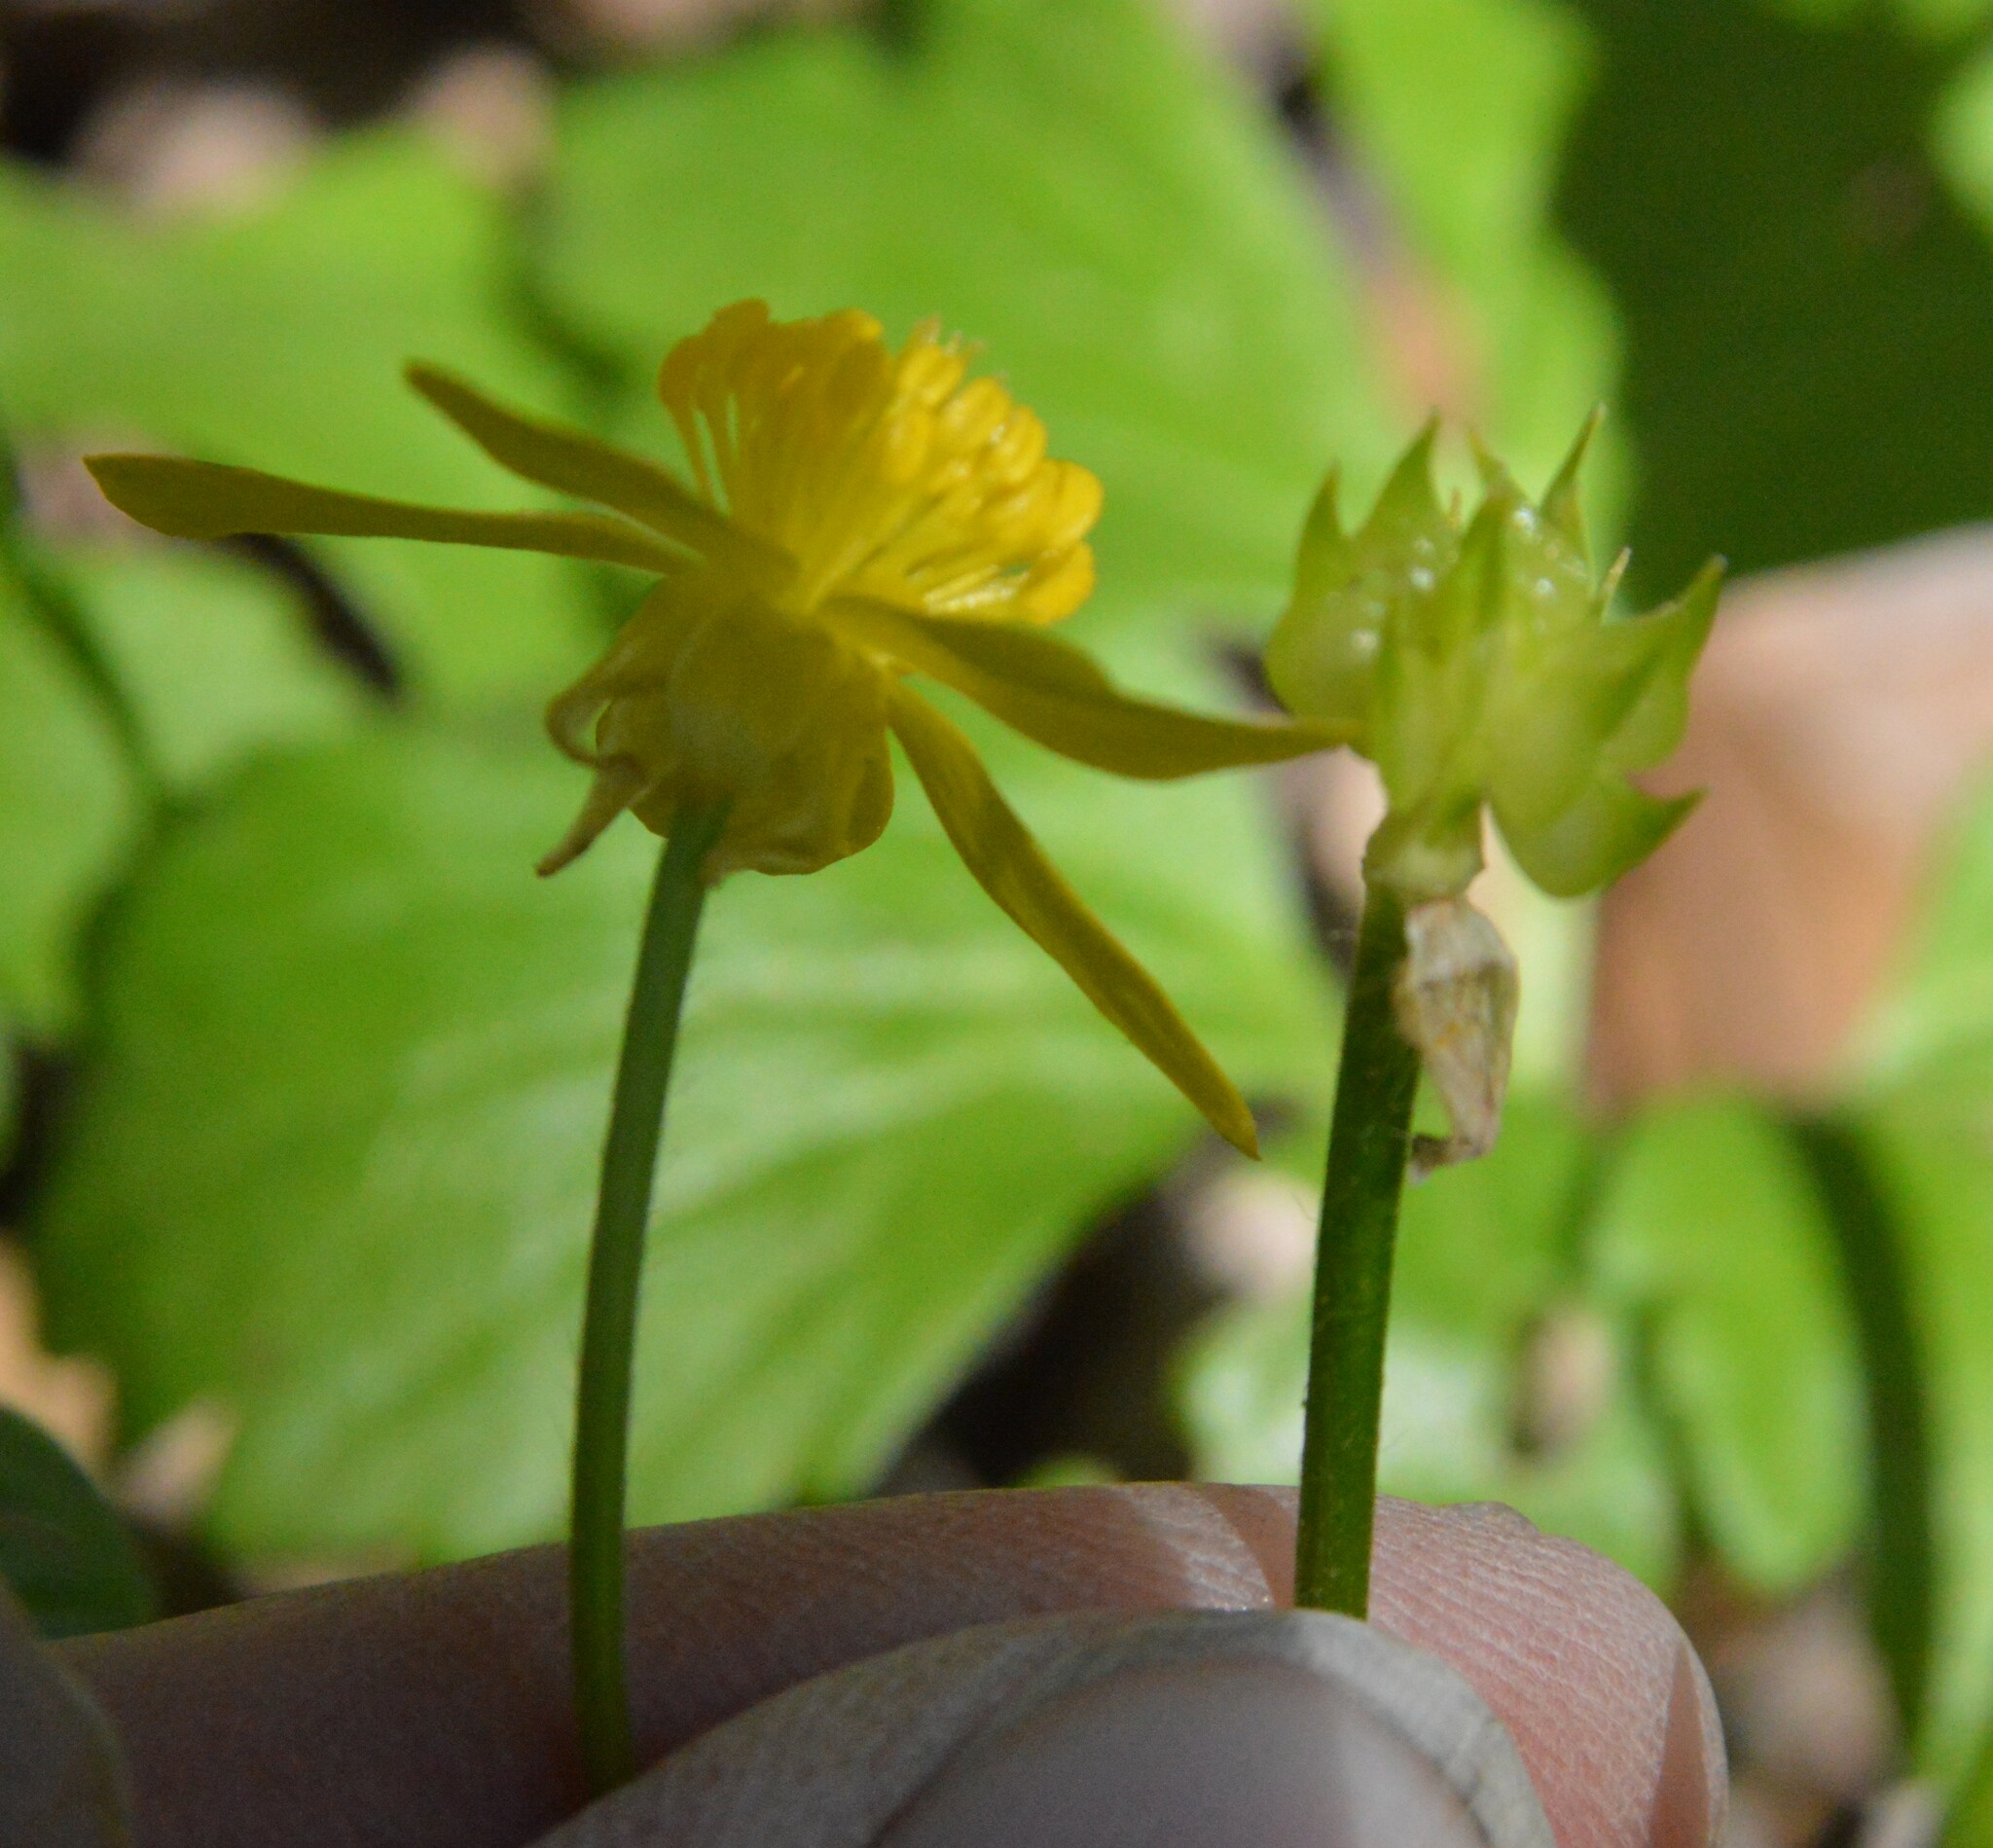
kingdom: Plantae
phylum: Tracheophyta
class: Magnoliopsida
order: Ranunculales
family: Ranunculaceae
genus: Ranunculus
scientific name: Ranunculus fascicularis
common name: Early buttercup
